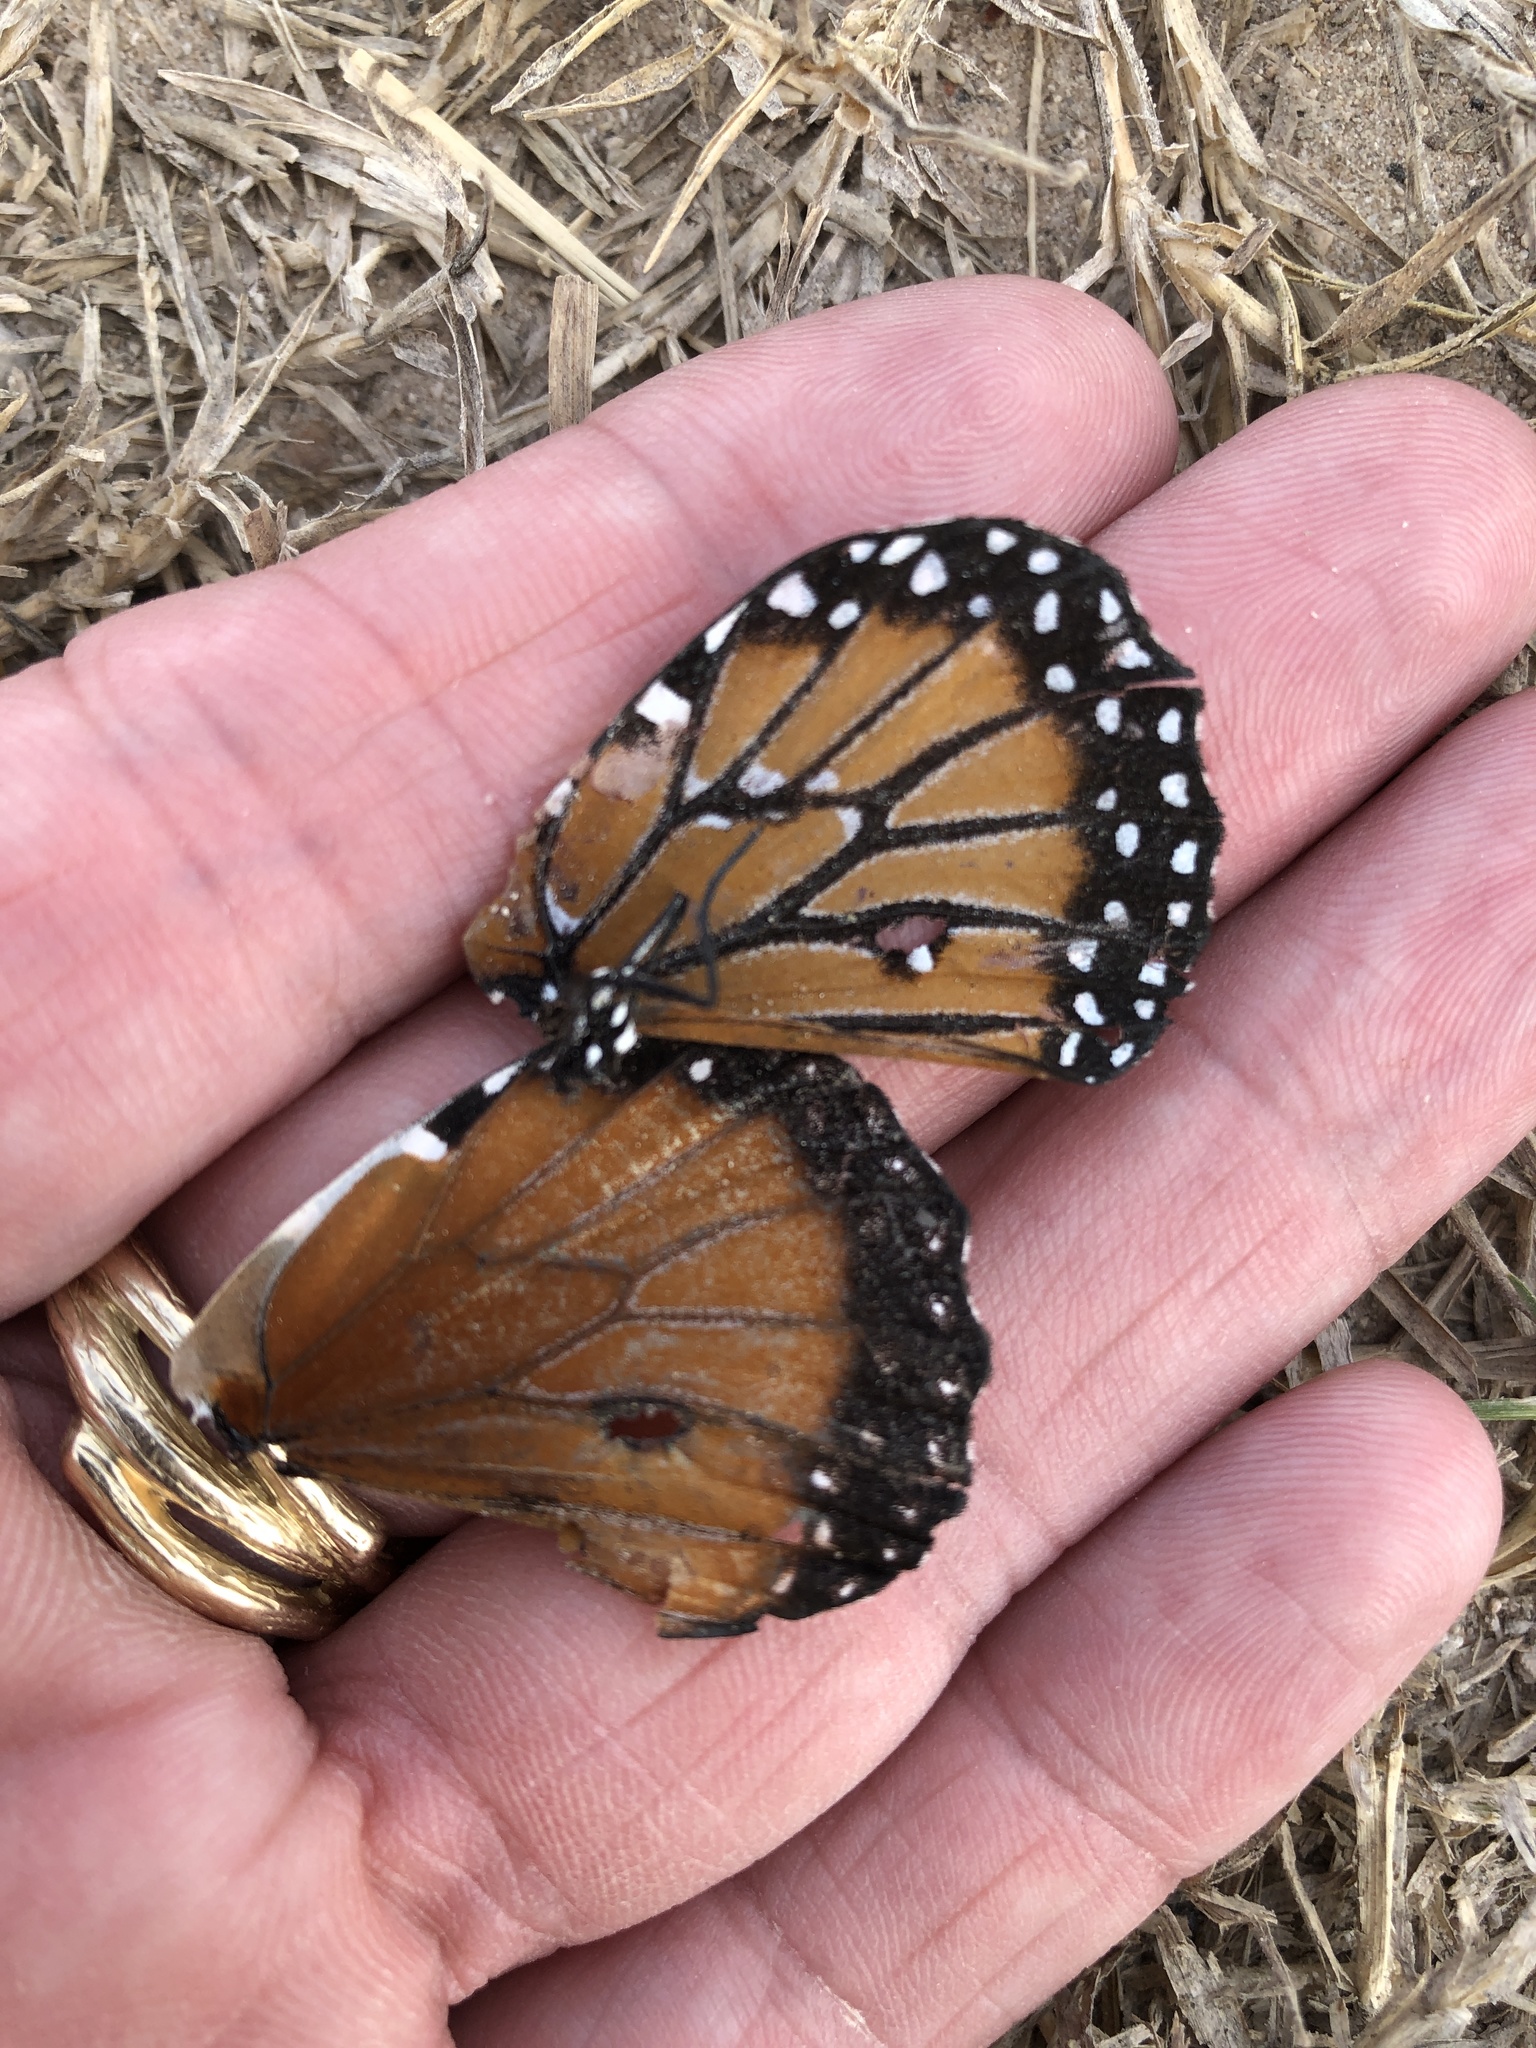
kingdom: Animalia
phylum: Arthropoda
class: Insecta
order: Lepidoptera
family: Nymphalidae
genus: Danaus
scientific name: Danaus gilippus
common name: Queen
